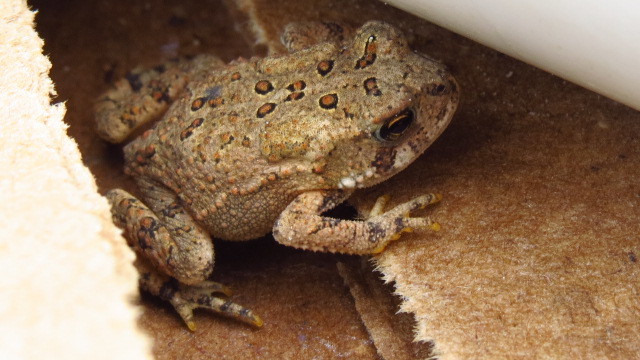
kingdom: Animalia
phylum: Chordata
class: Amphibia
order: Anura
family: Bufonidae
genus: Anaxyrus
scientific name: Anaxyrus americanus
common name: American toad
